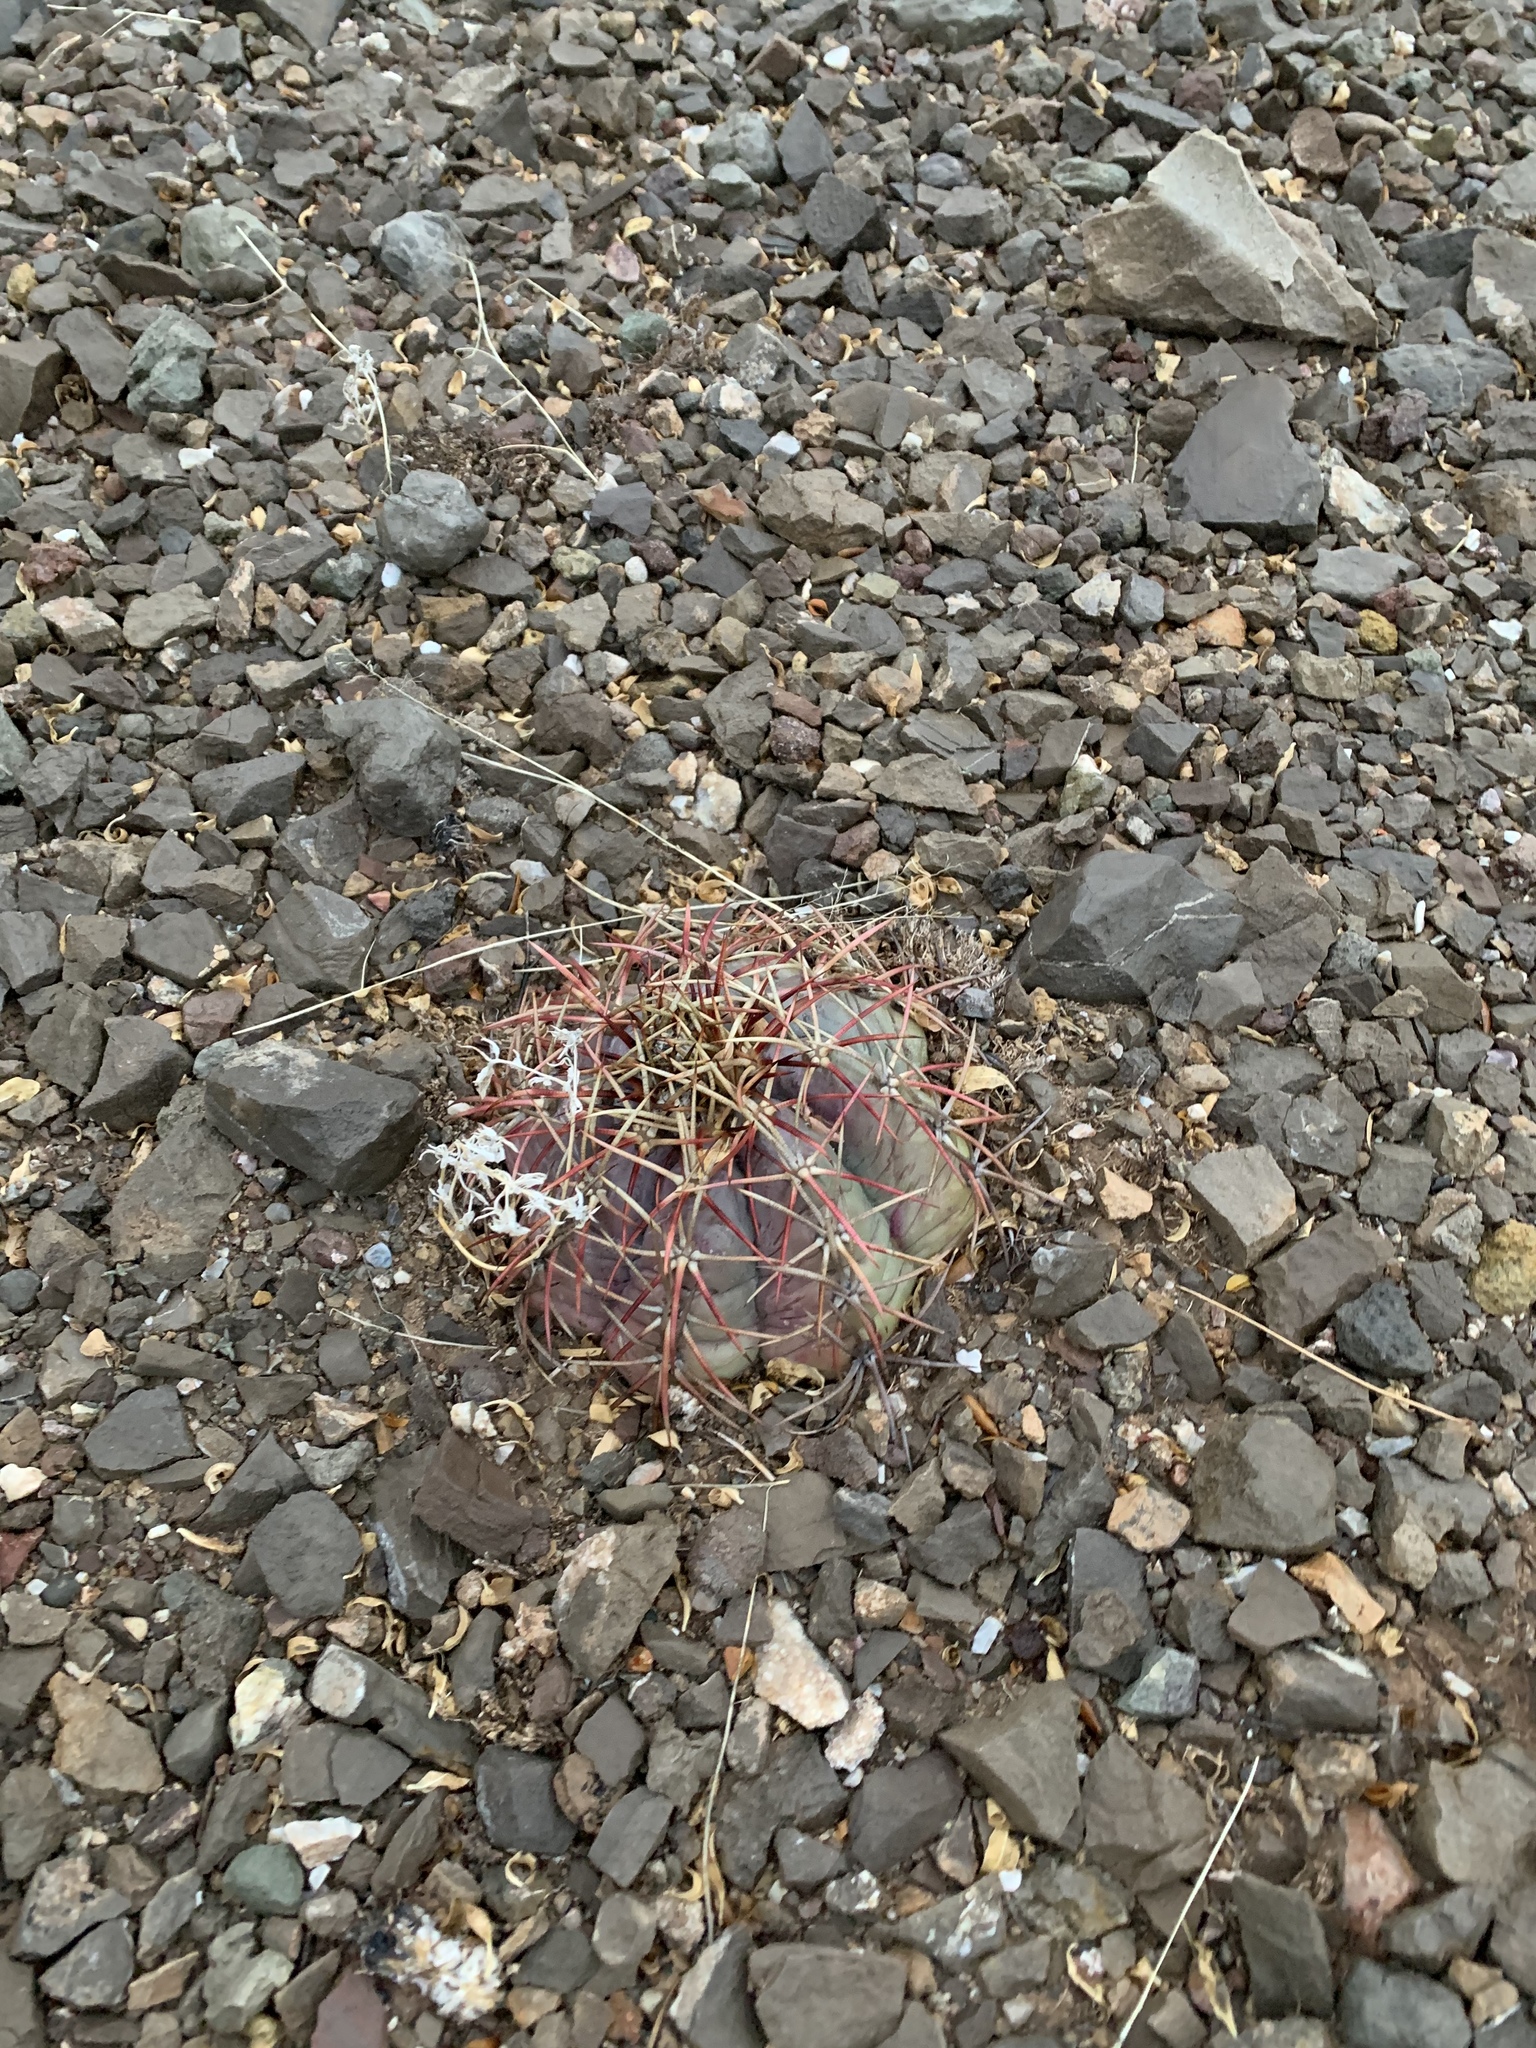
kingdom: Plantae
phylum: Tracheophyta
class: Magnoliopsida
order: Caryophyllales
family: Cactaceae
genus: Echinocactus
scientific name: Echinocactus horizonthalonius
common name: Devilshead
